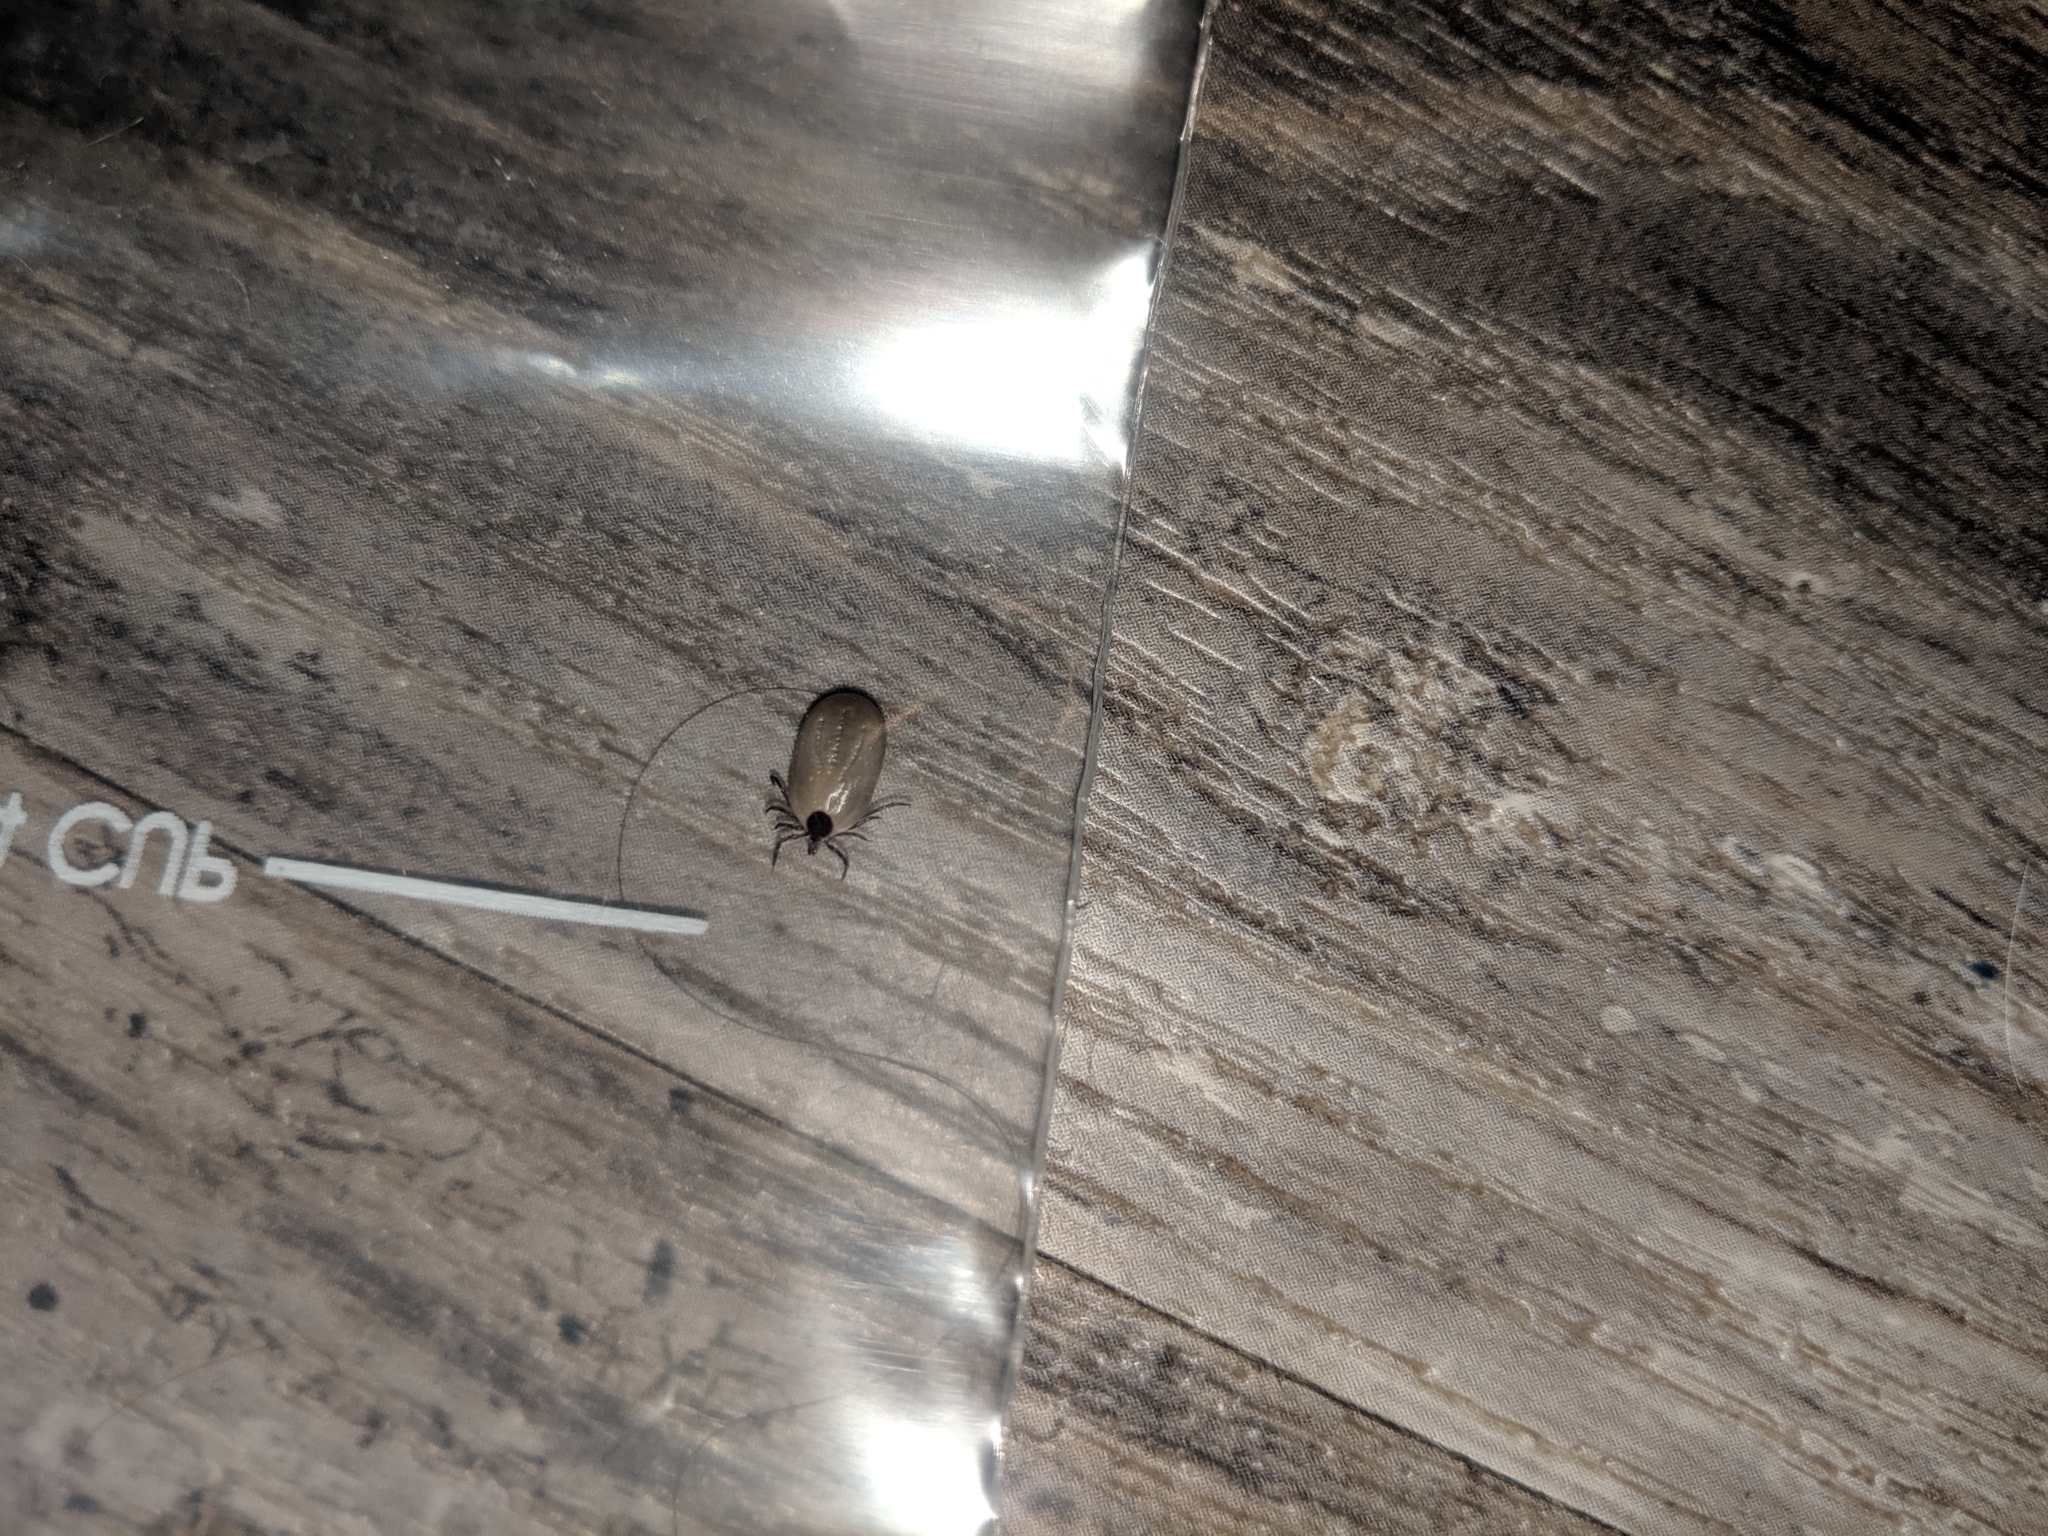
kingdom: Animalia
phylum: Arthropoda
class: Arachnida
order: Ixodida
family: Ixodidae
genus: Ixodes
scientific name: Ixodes scapularis
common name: Black legged tick
